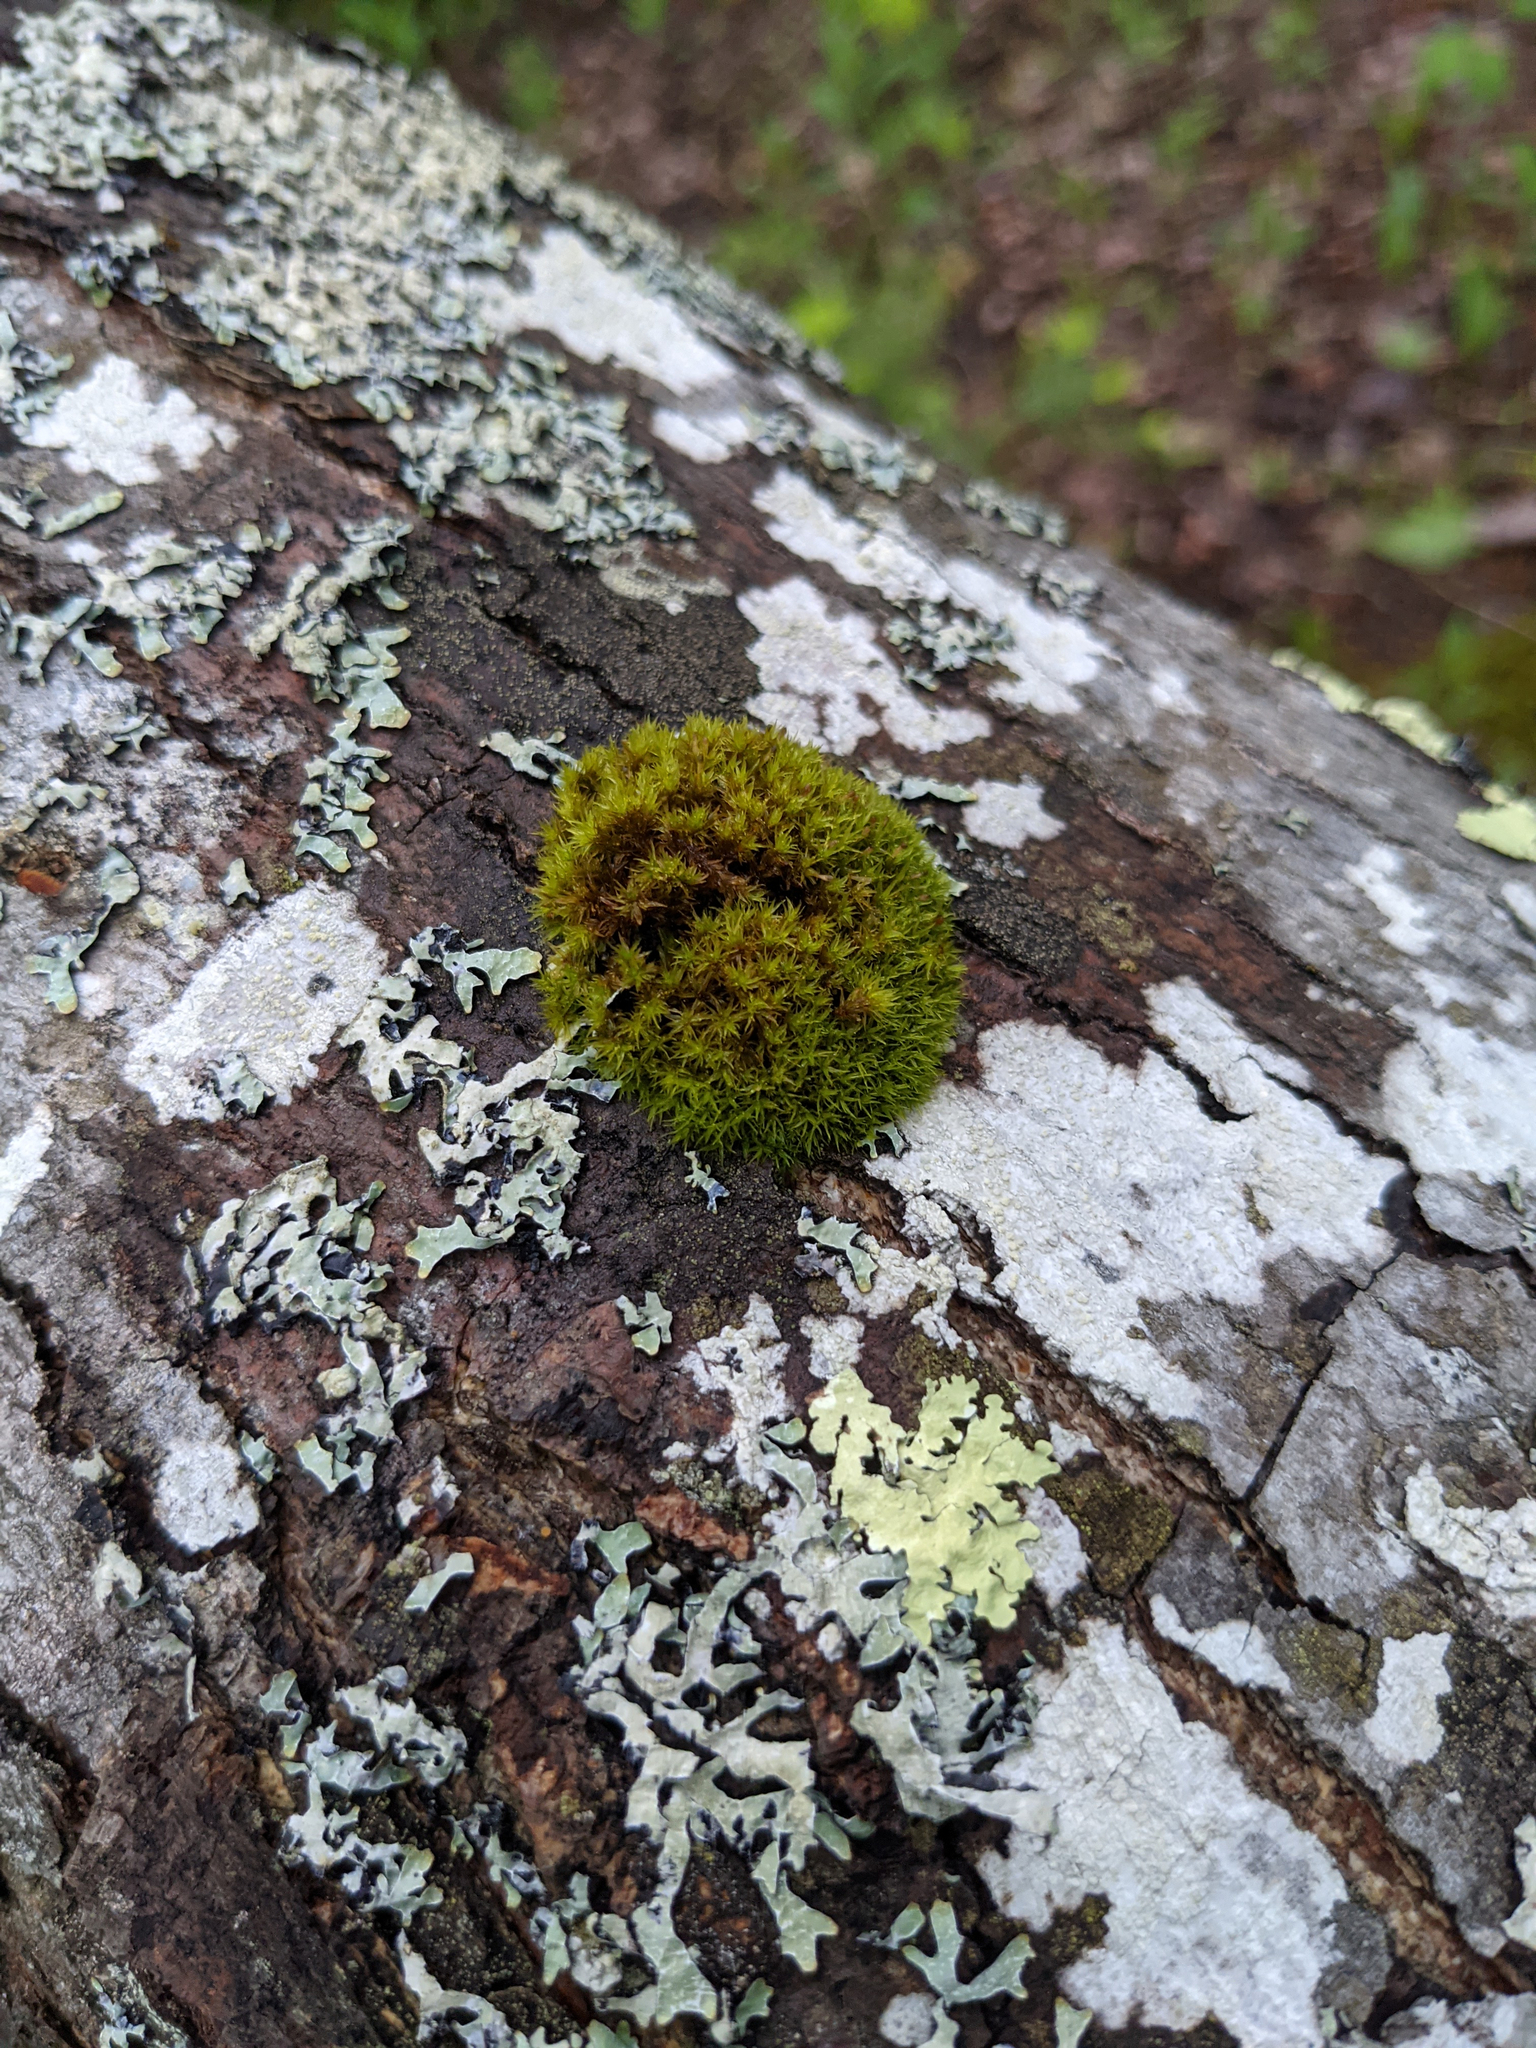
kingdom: Plantae
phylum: Bryophyta
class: Bryopsida
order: Orthotrichales
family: Orthotrichaceae
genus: Ulota
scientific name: Ulota crispa
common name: Crisped pincushion moss
